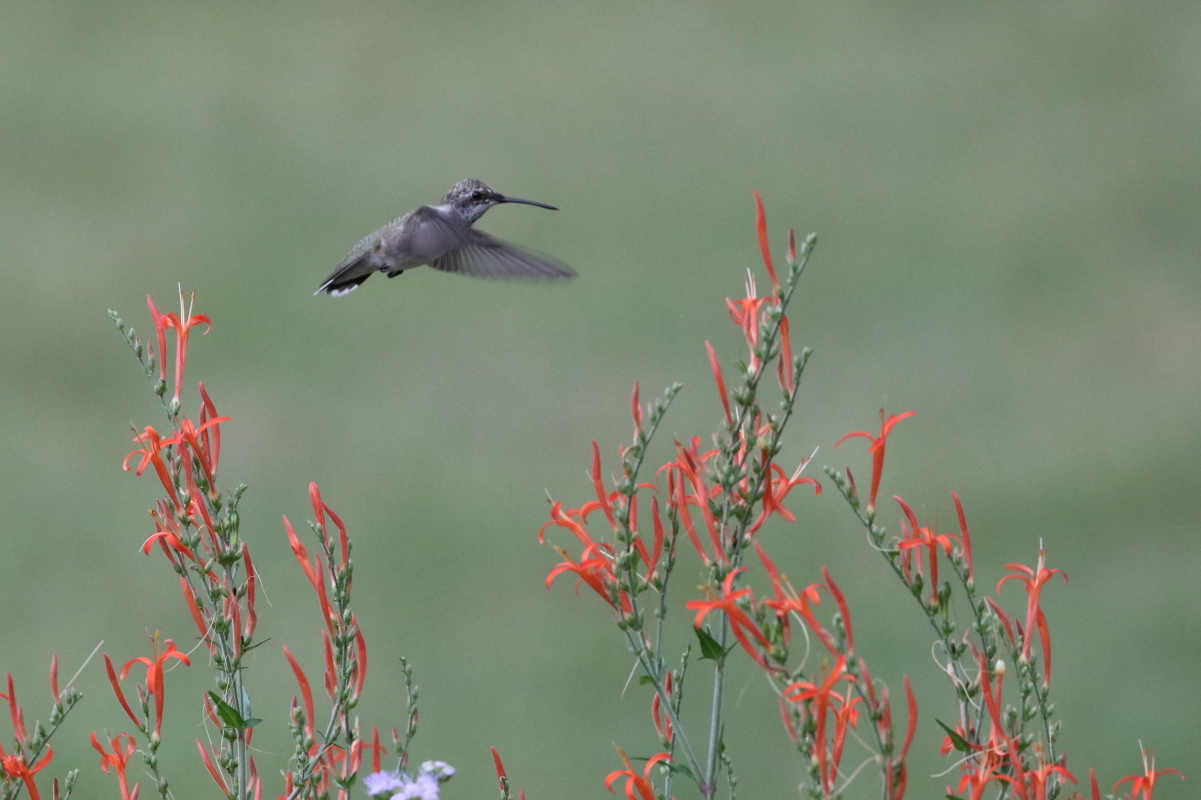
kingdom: Animalia
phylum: Chordata
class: Aves
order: Apodiformes
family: Trochilidae
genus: Archilochus
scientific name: Archilochus alexandri
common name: Black-chinned hummingbird
